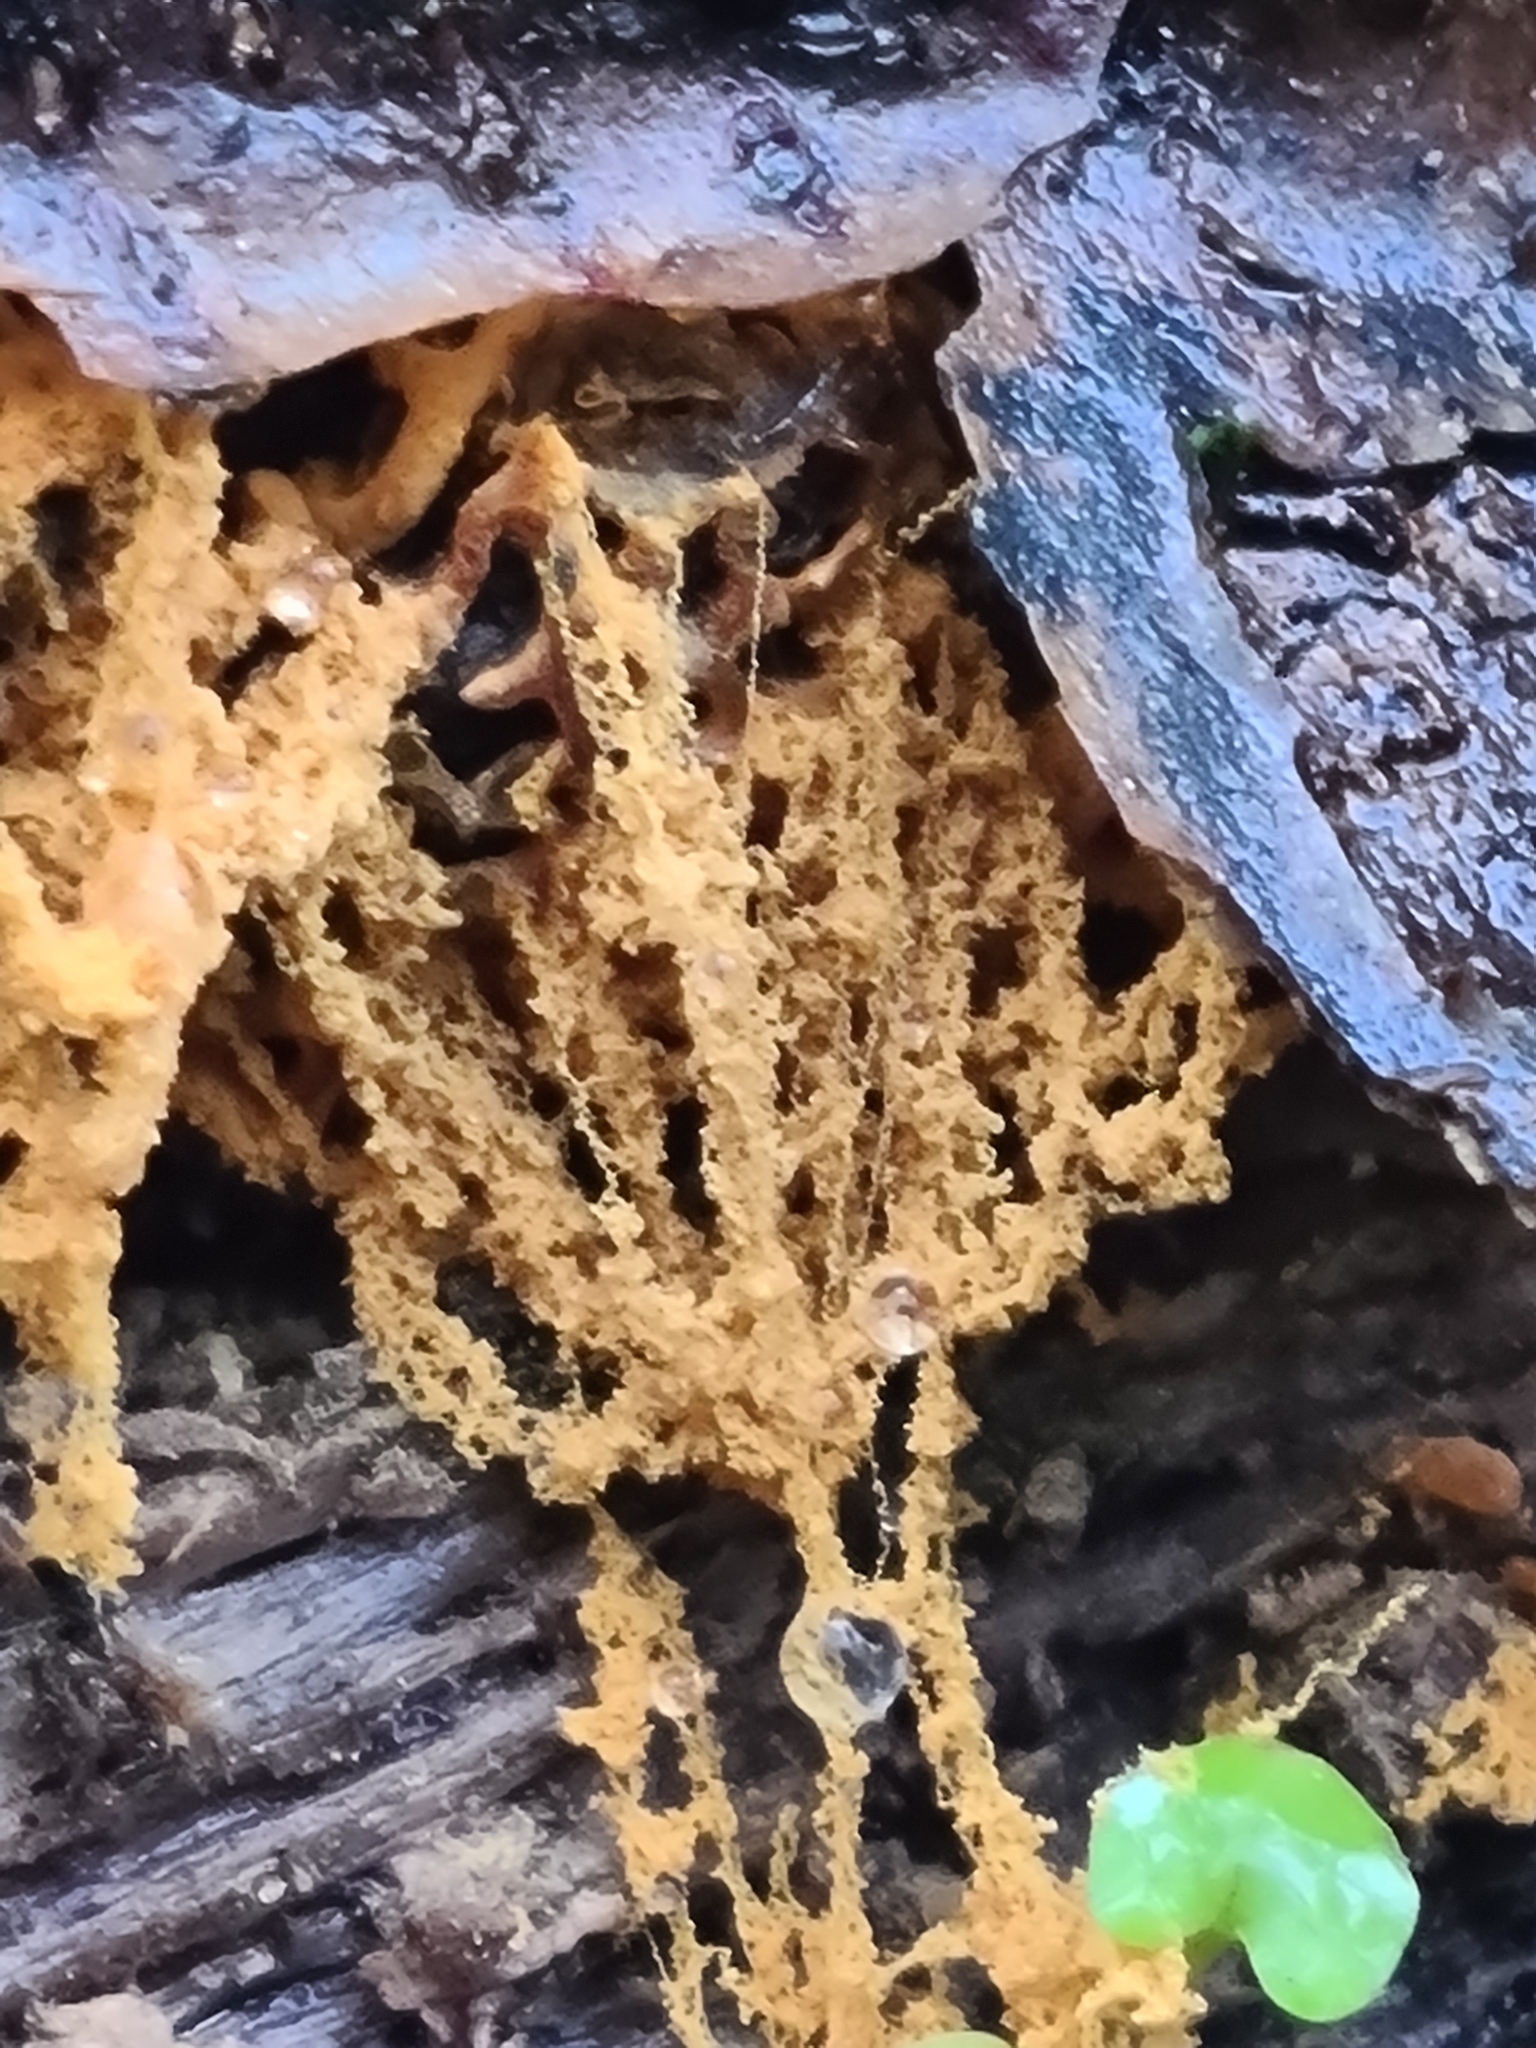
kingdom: Protozoa
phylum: Mycetozoa
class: Myxomycetes
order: Trichiales
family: Arcyriaceae
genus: Hemitrichia
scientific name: Hemitrichia serpula
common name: Pretzel slime mold
